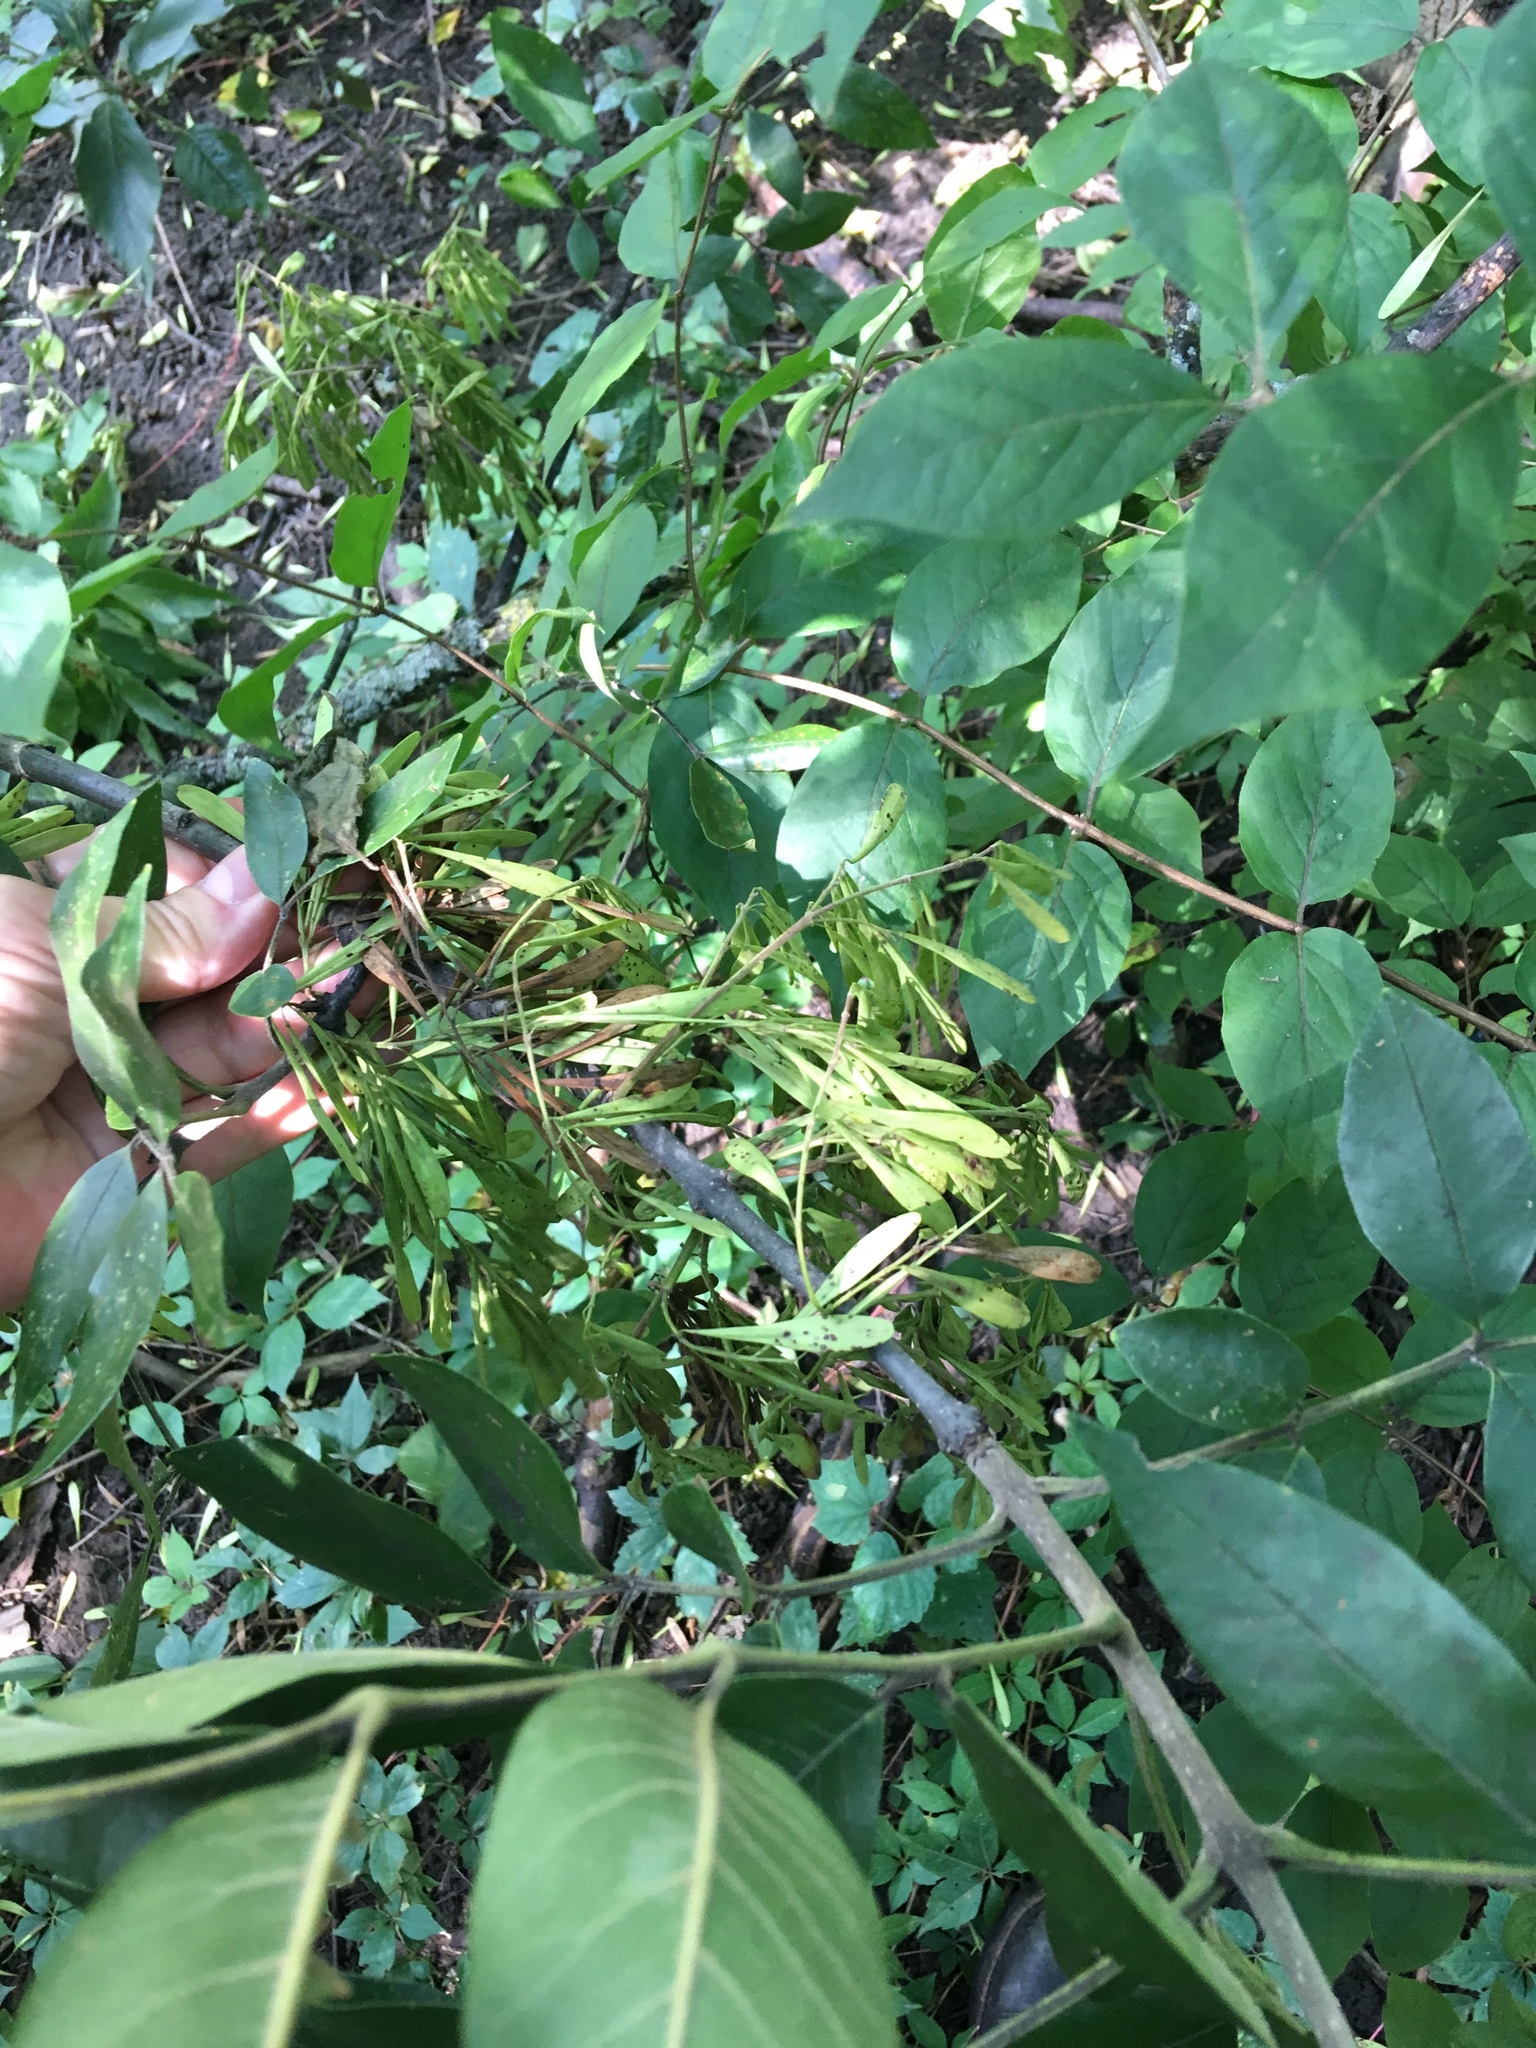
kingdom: Plantae
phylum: Tracheophyta
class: Magnoliopsida
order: Lamiales
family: Oleaceae
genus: Fraxinus
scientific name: Fraxinus pennsylvanica
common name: Green ash
